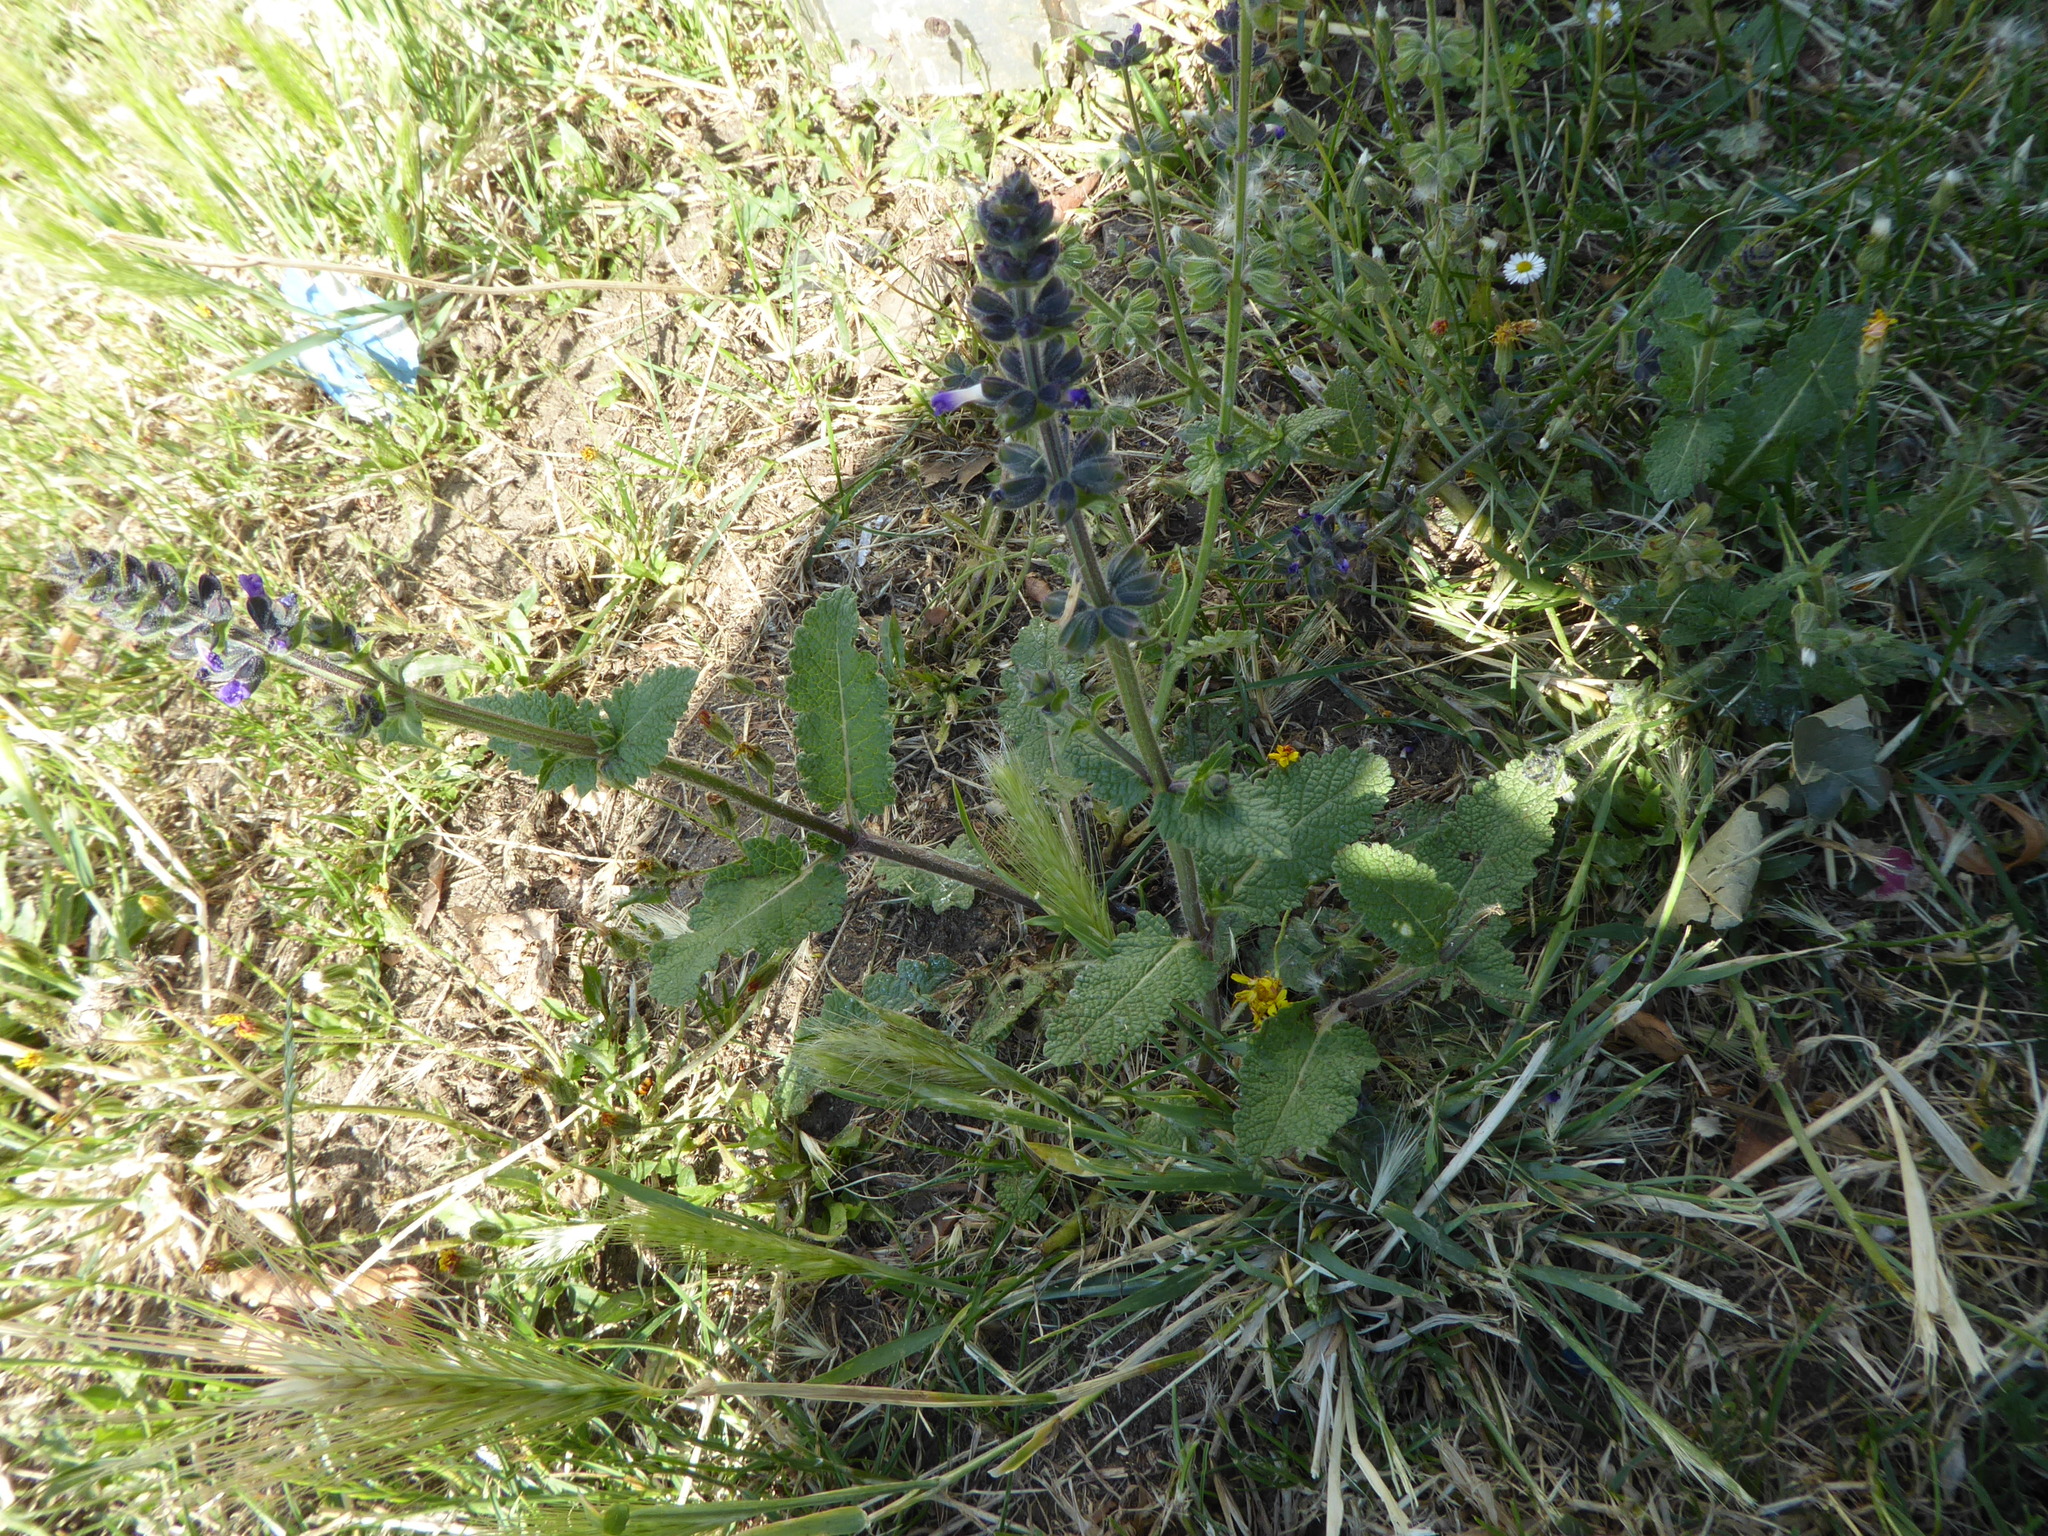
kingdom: Plantae
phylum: Tracheophyta
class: Magnoliopsida
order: Lamiales
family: Lamiaceae
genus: Salvia
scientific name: Salvia verbenaca
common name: Wild clary
